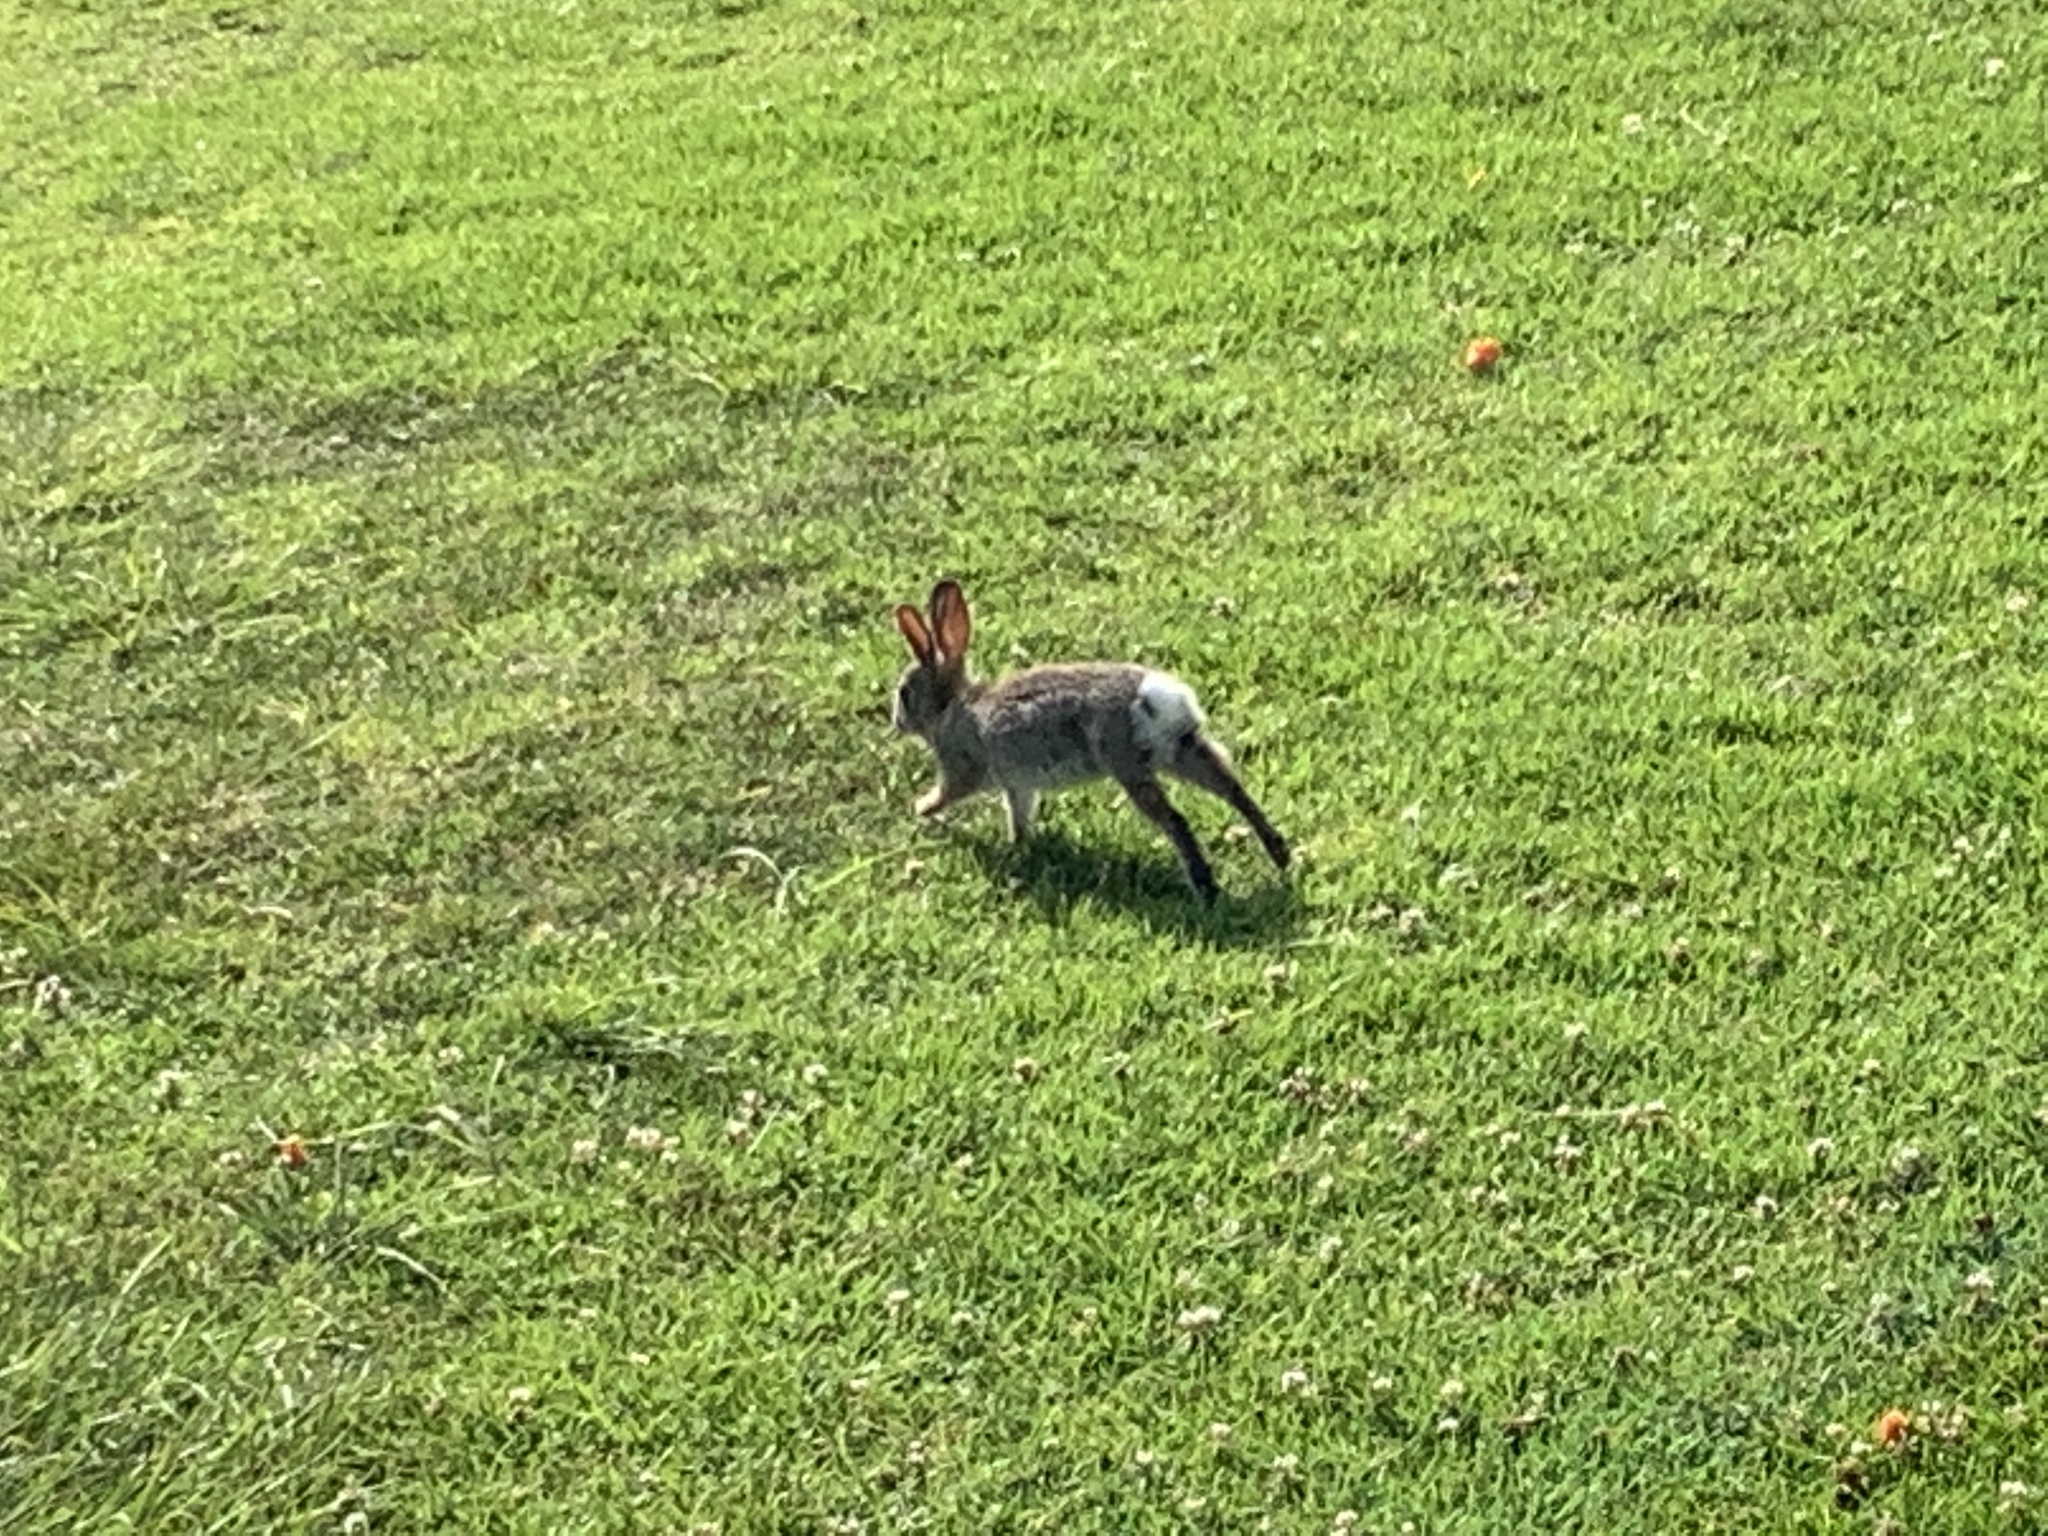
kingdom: Animalia
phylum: Chordata
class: Mammalia
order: Lagomorpha
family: Leporidae
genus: Sylvilagus
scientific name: Sylvilagus audubonii
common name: Desert cottontail
